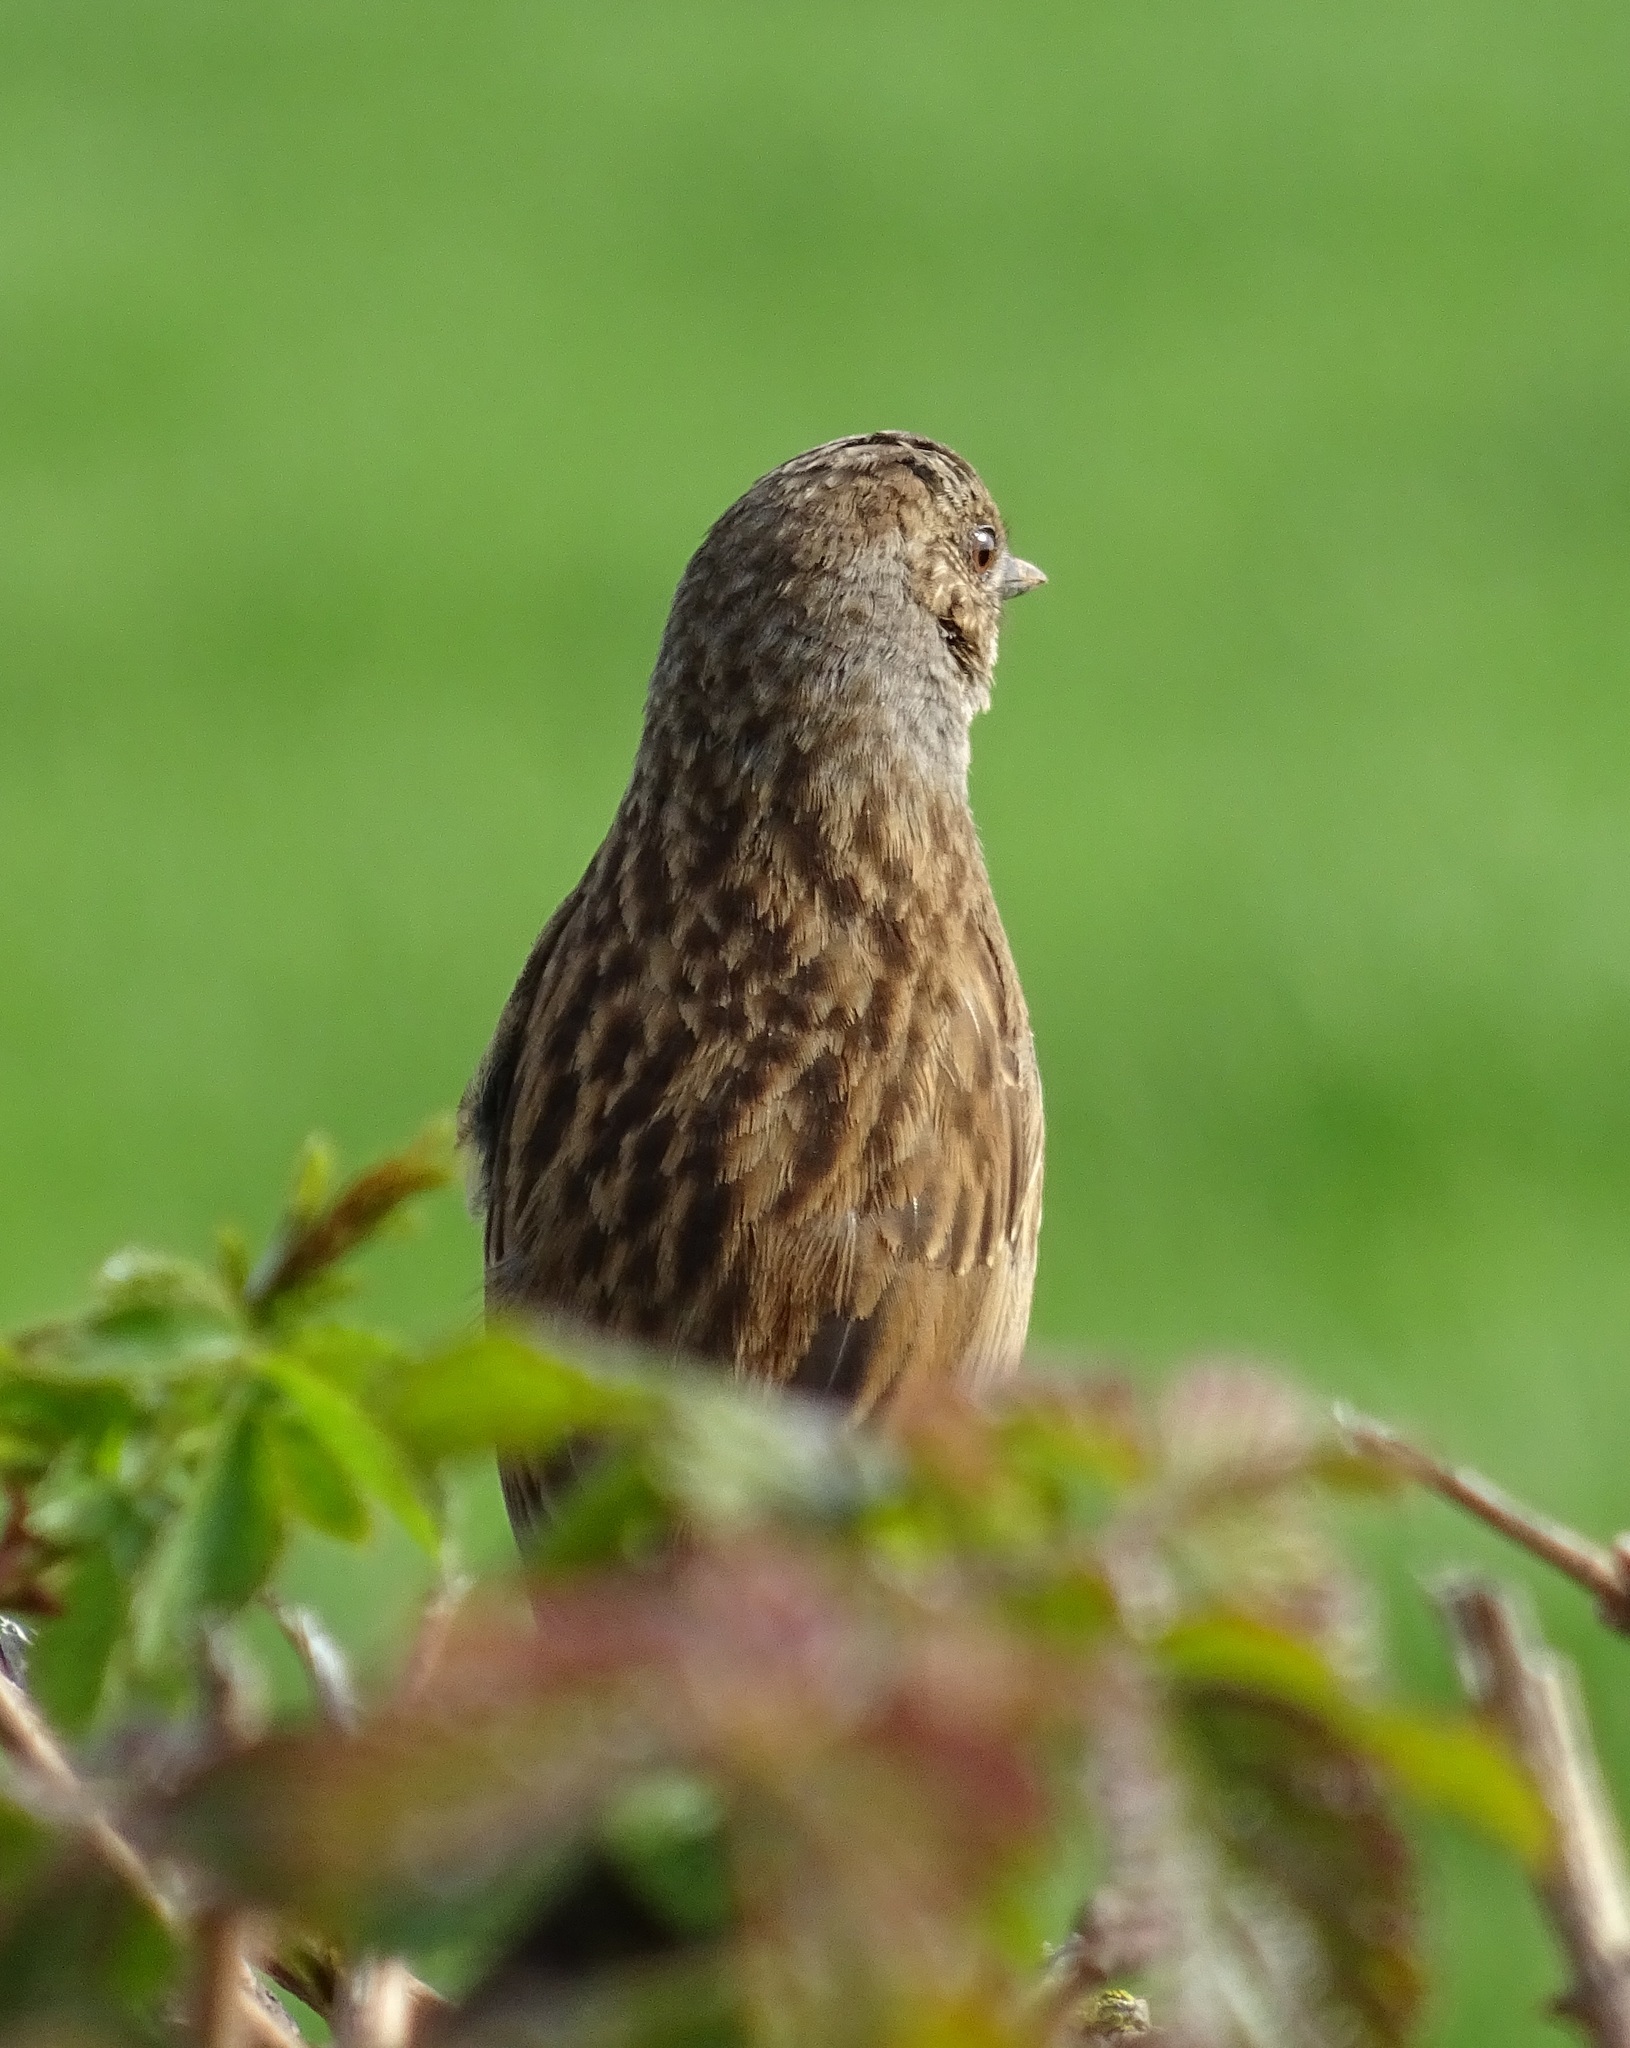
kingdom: Animalia
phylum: Chordata
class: Aves
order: Passeriformes
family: Prunellidae
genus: Prunella
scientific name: Prunella modularis
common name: Dunnock
